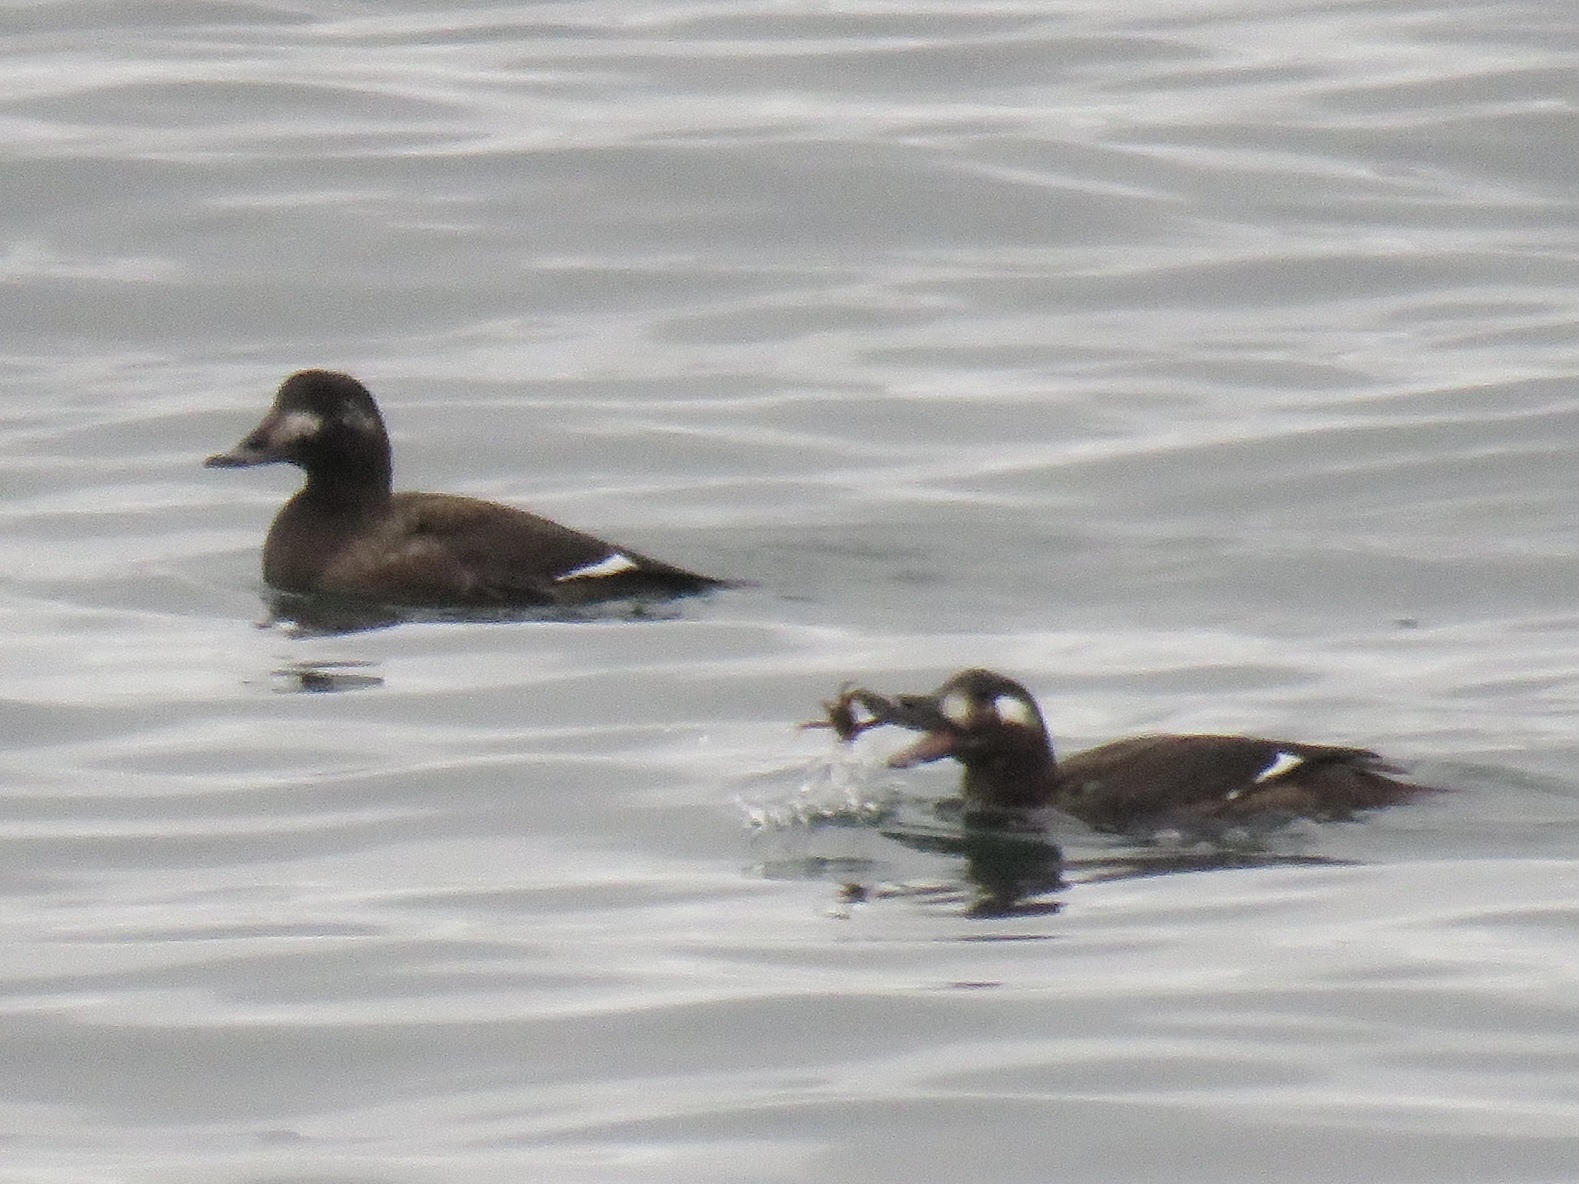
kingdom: Animalia
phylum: Chordata
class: Aves
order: Anseriformes
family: Anatidae
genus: Melanitta
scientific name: Melanitta deglandi
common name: White-winged scoter
